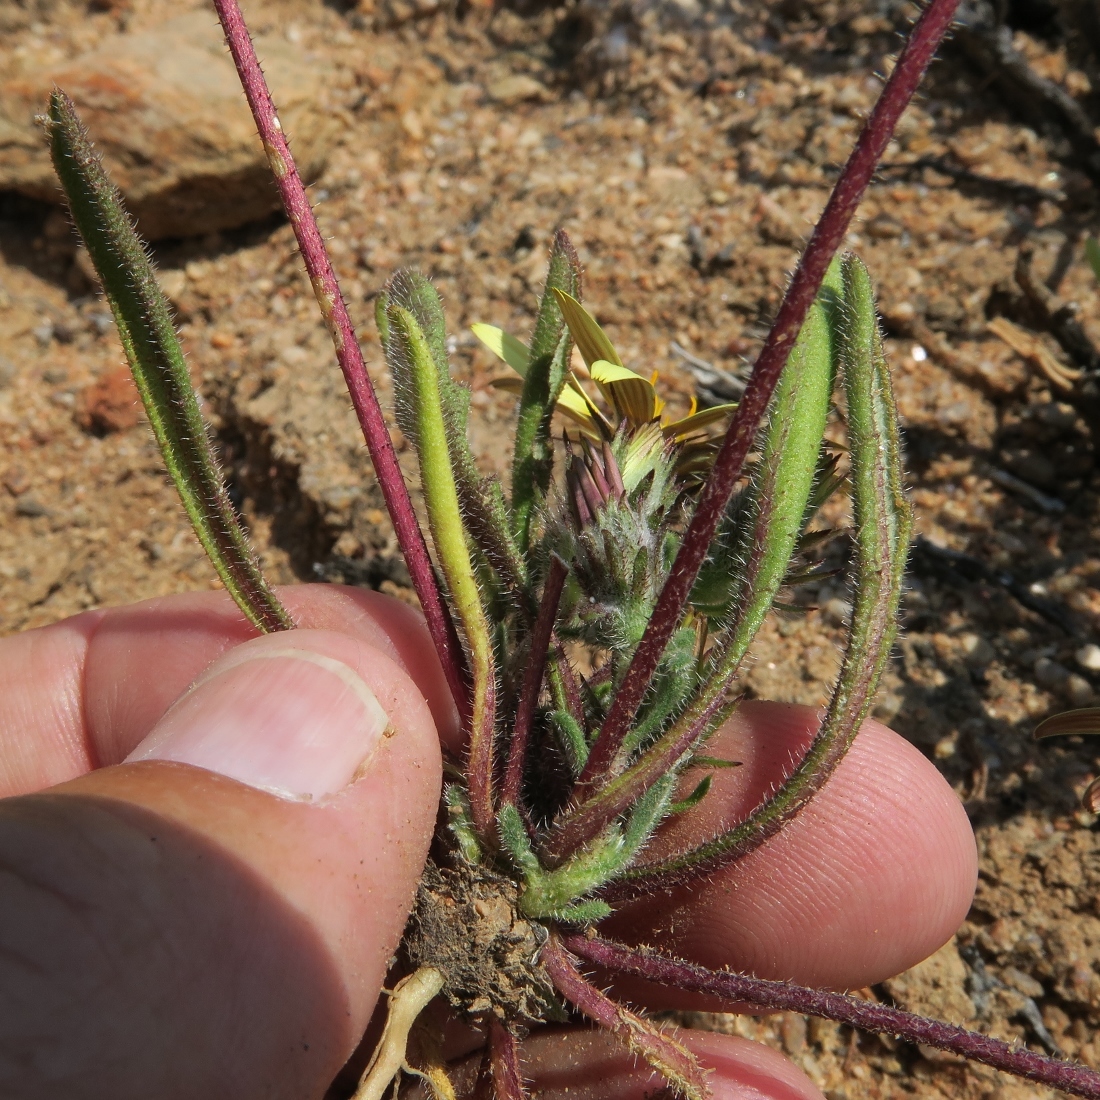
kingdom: Plantae
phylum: Tracheophyta
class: Magnoliopsida
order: Asterales
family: Asteraceae
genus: Gorteria
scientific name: Gorteria diffusa
